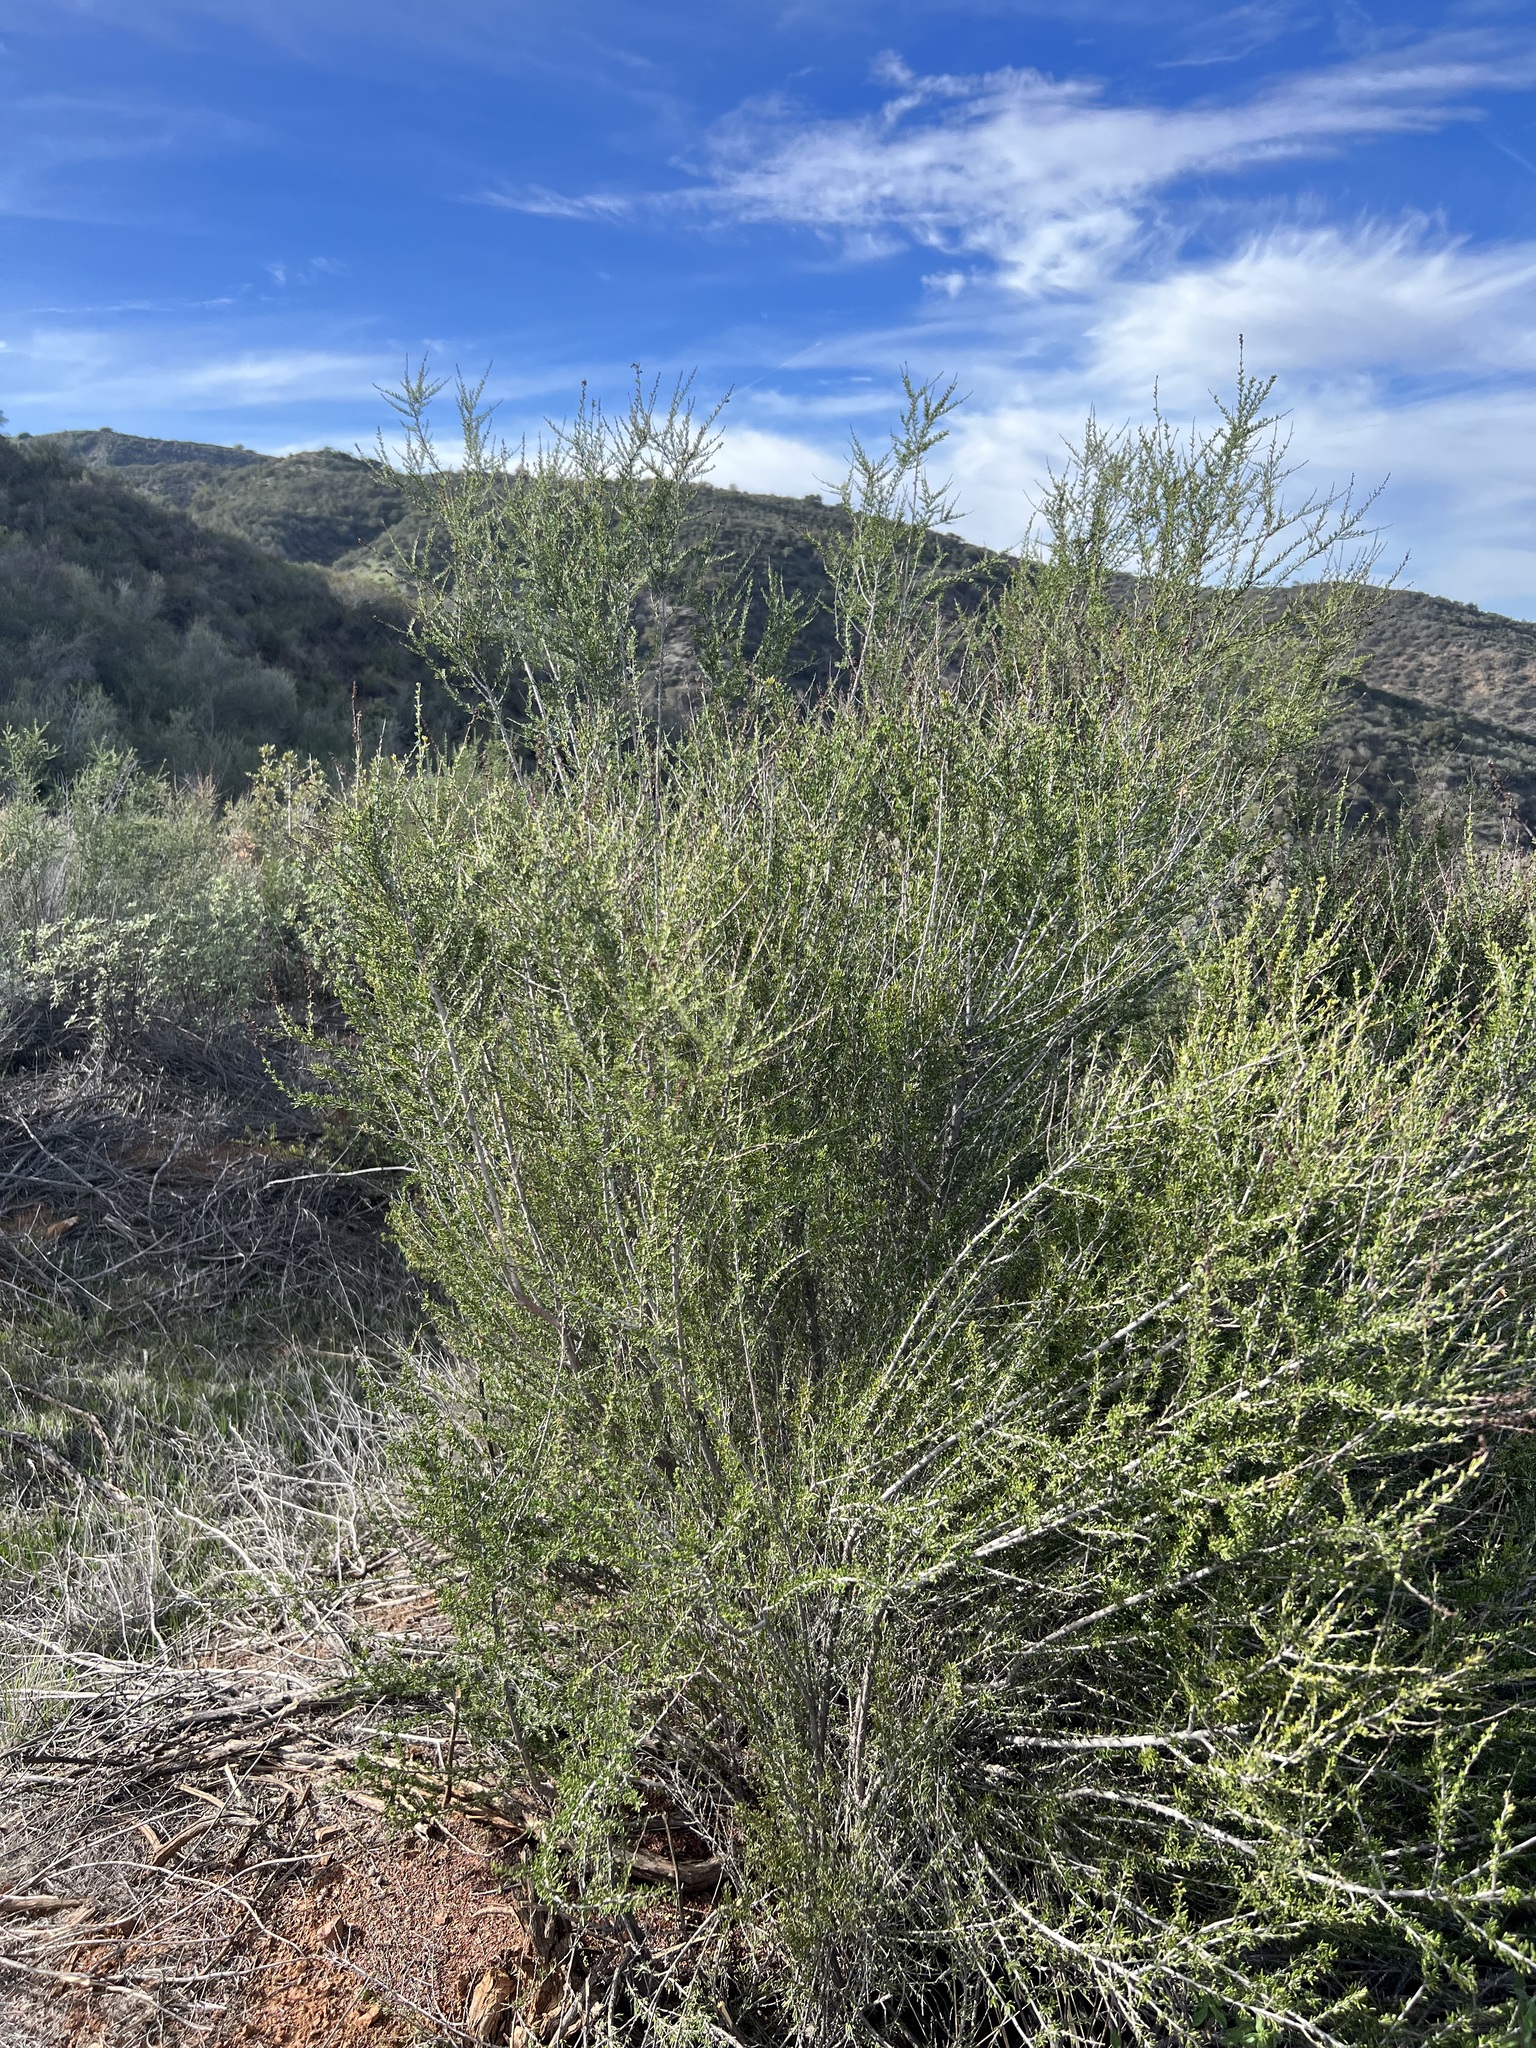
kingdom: Plantae
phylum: Tracheophyta
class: Magnoliopsida
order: Rosales
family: Rosaceae
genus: Adenostoma
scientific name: Adenostoma fasciculatum
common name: Chamise
